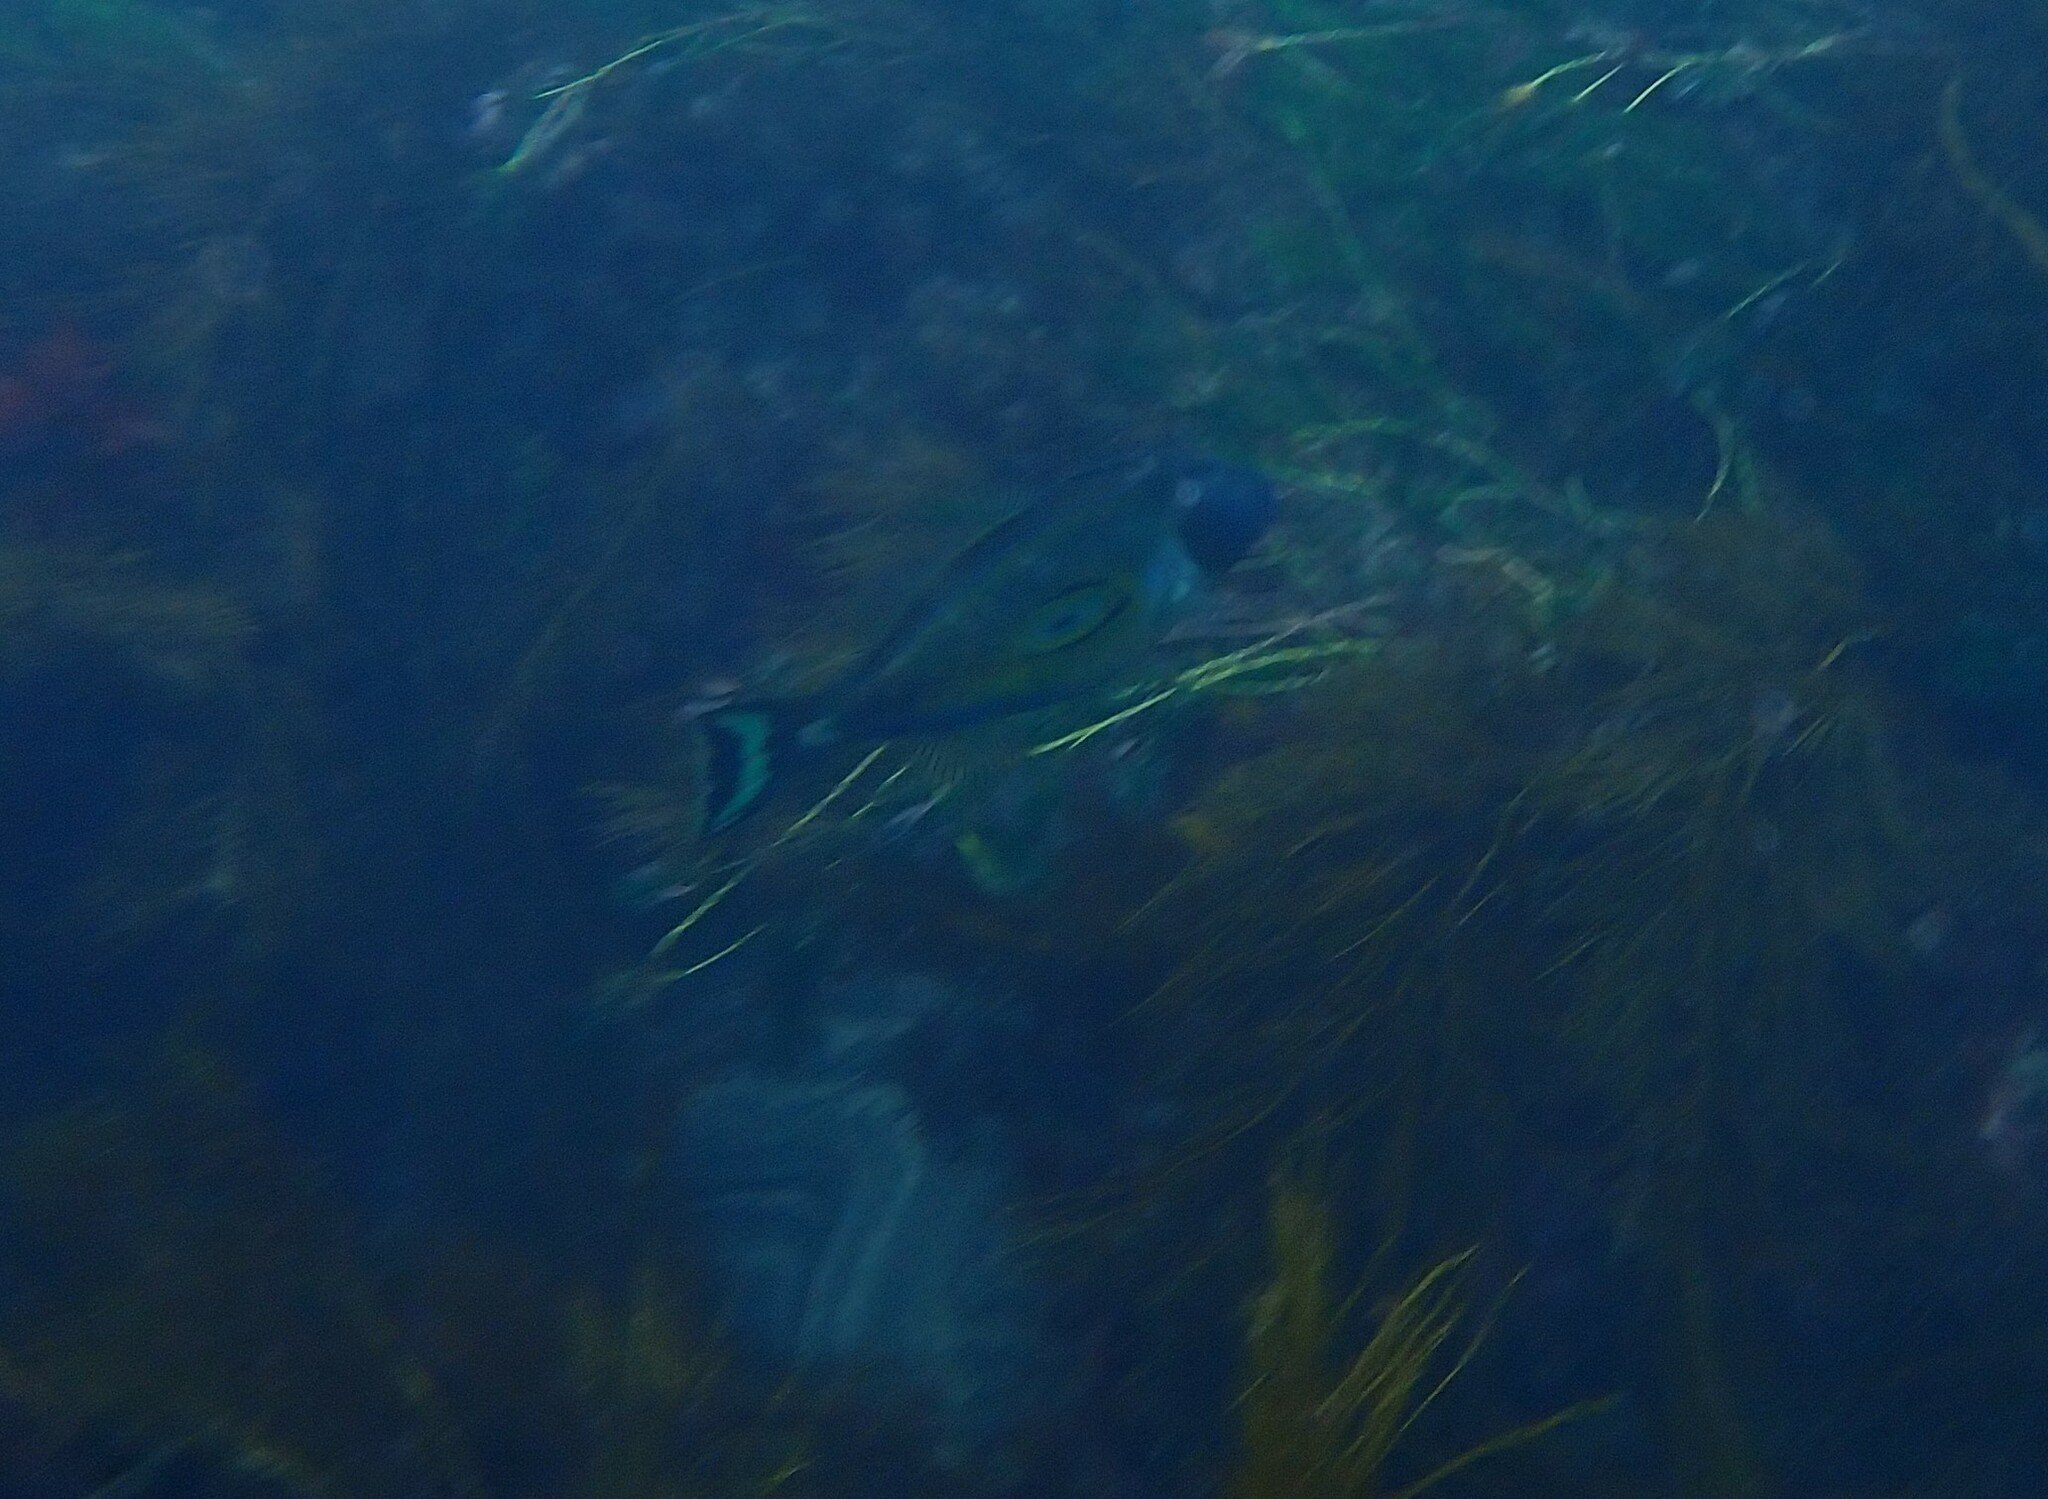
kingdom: Animalia
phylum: Chordata
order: Tetraodontiformes
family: Monacanthidae
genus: Meuschenia
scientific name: Meuschenia hippocrepis
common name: Horse-shoe leatherjacket
